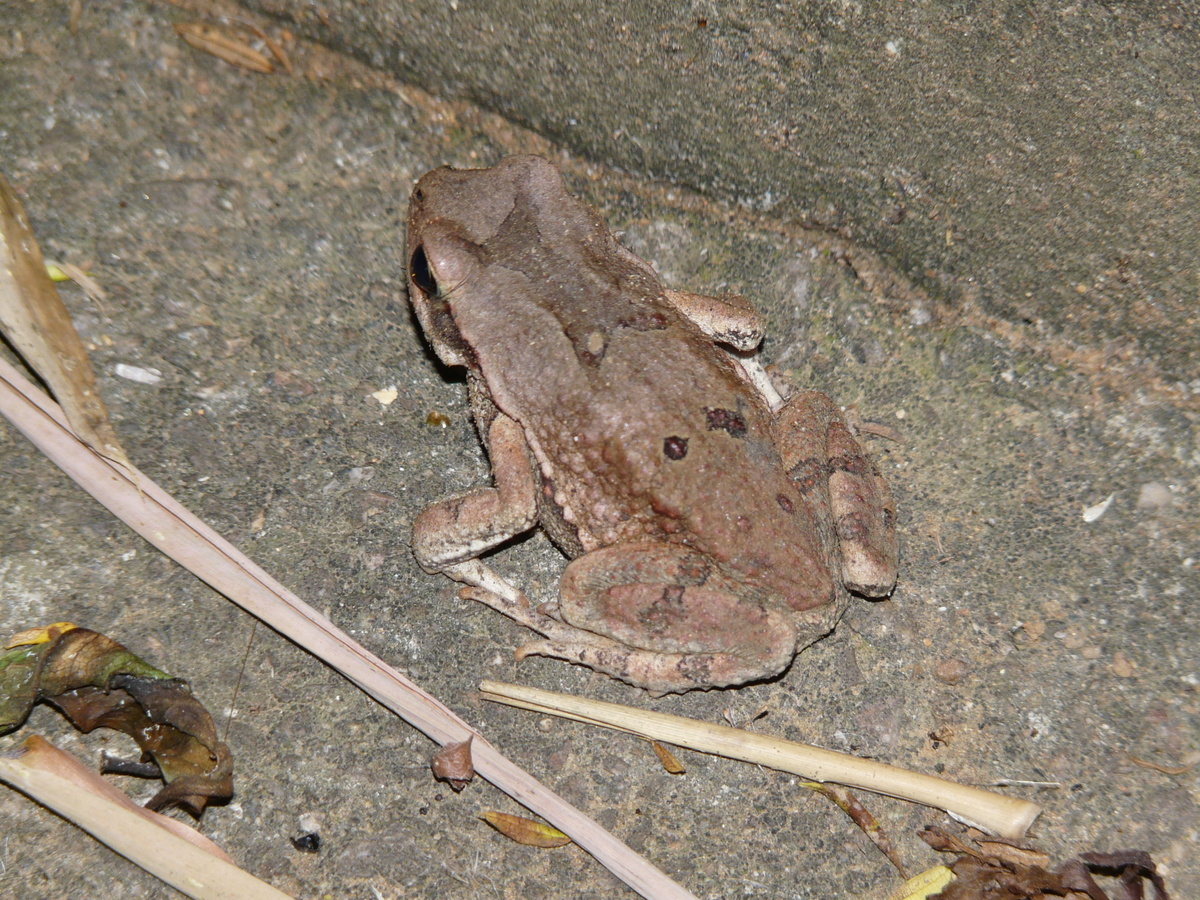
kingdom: Animalia
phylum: Chordata
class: Amphibia
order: Anura
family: Bufonidae
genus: Schismaderma
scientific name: Schismaderma carens
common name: African split-skin toad
